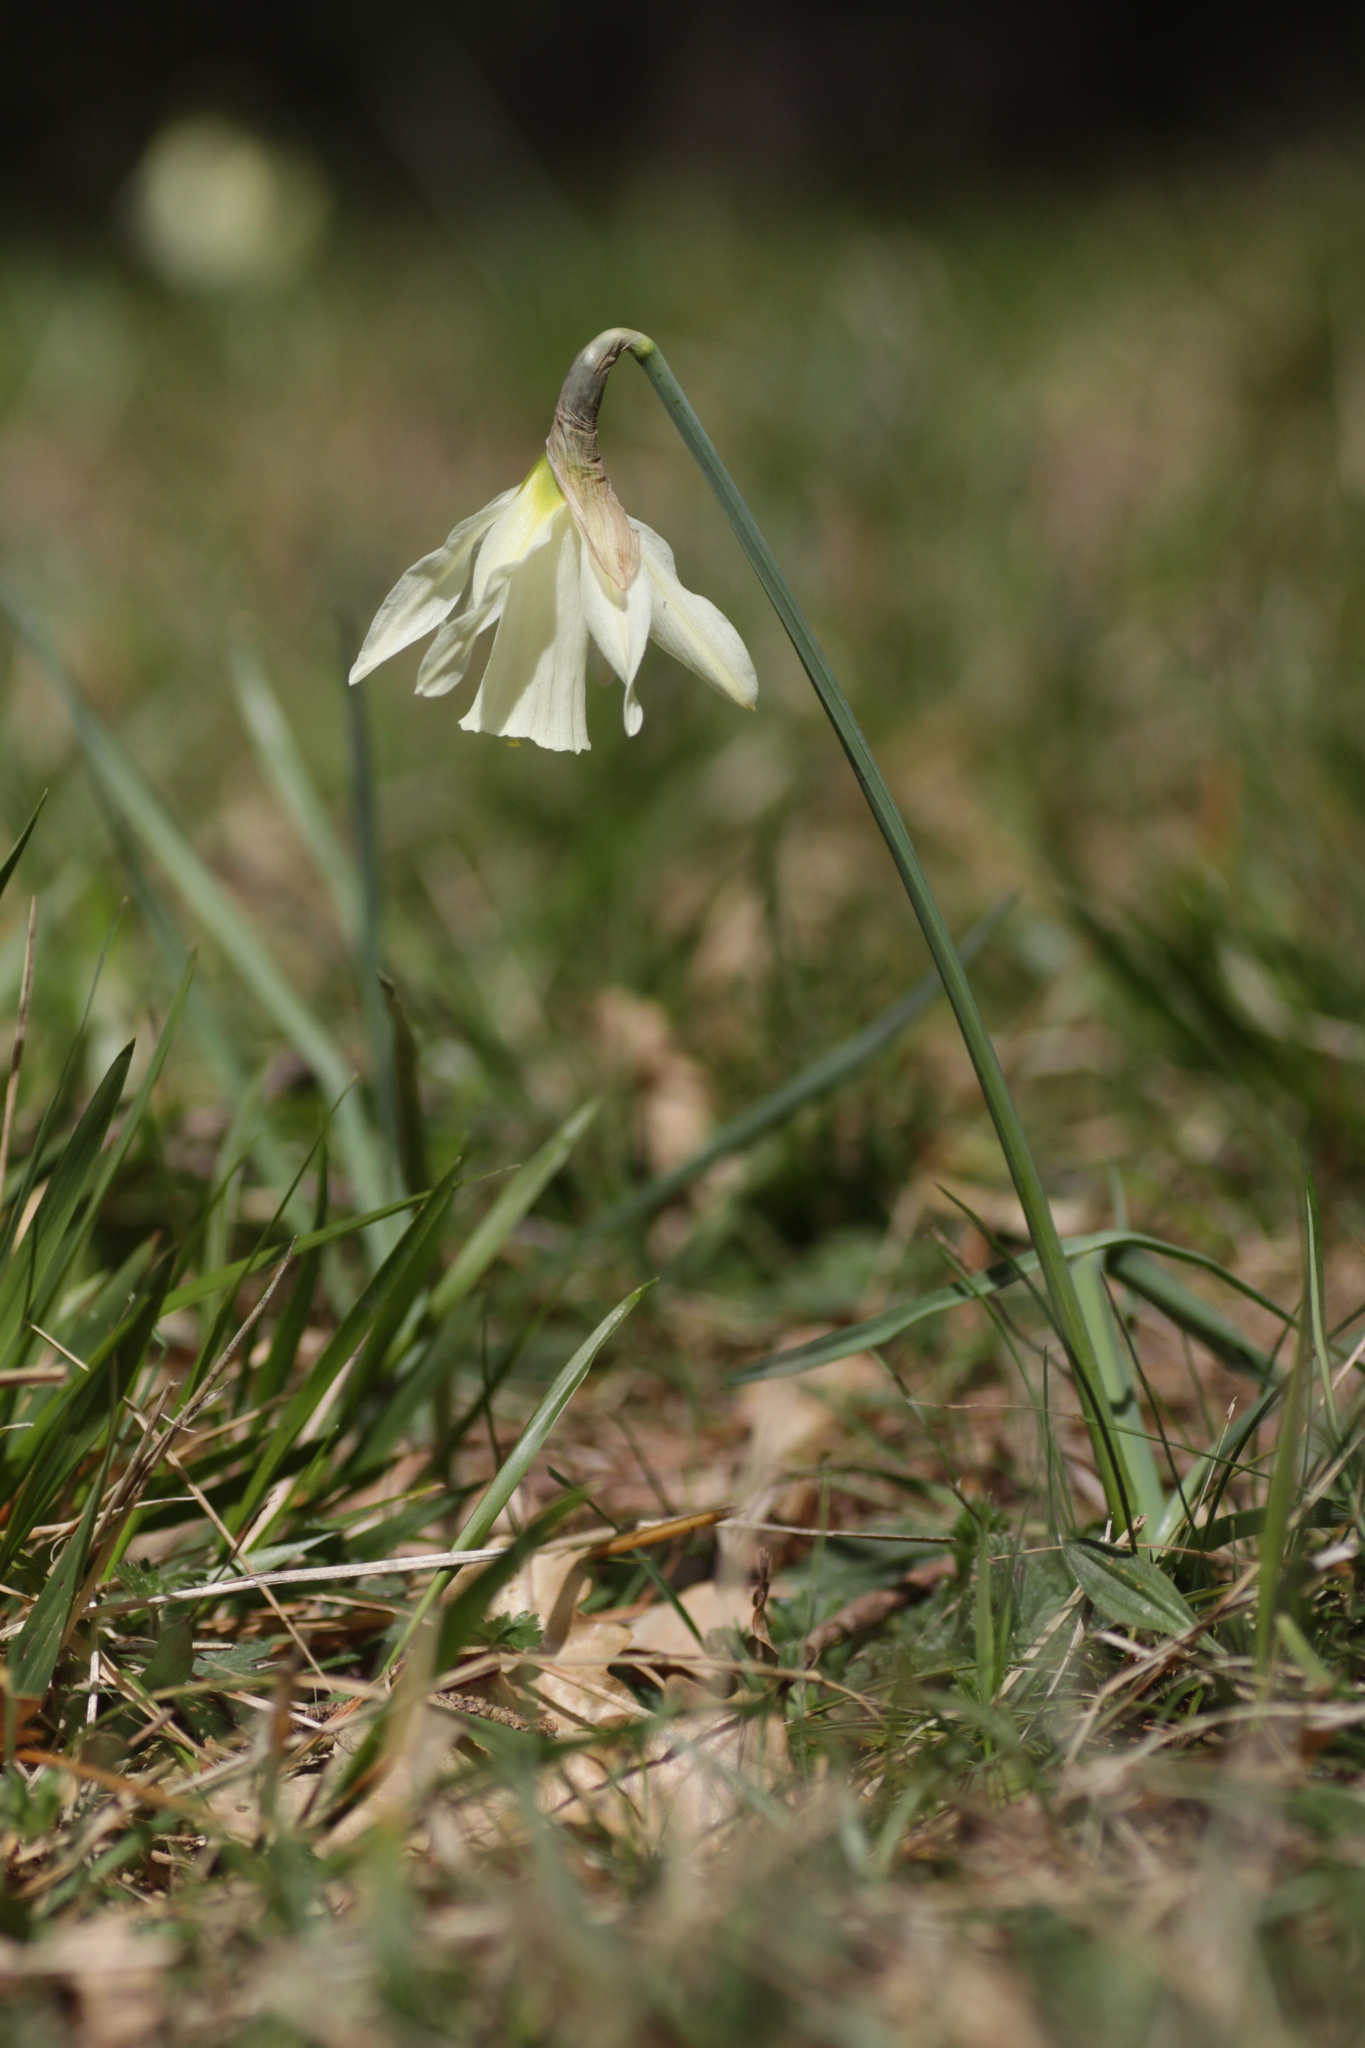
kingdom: Plantae
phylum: Tracheophyta
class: Liliopsida
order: Asparagales
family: Amaryllidaceae
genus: Narcissus
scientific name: Narcissus moschatus
